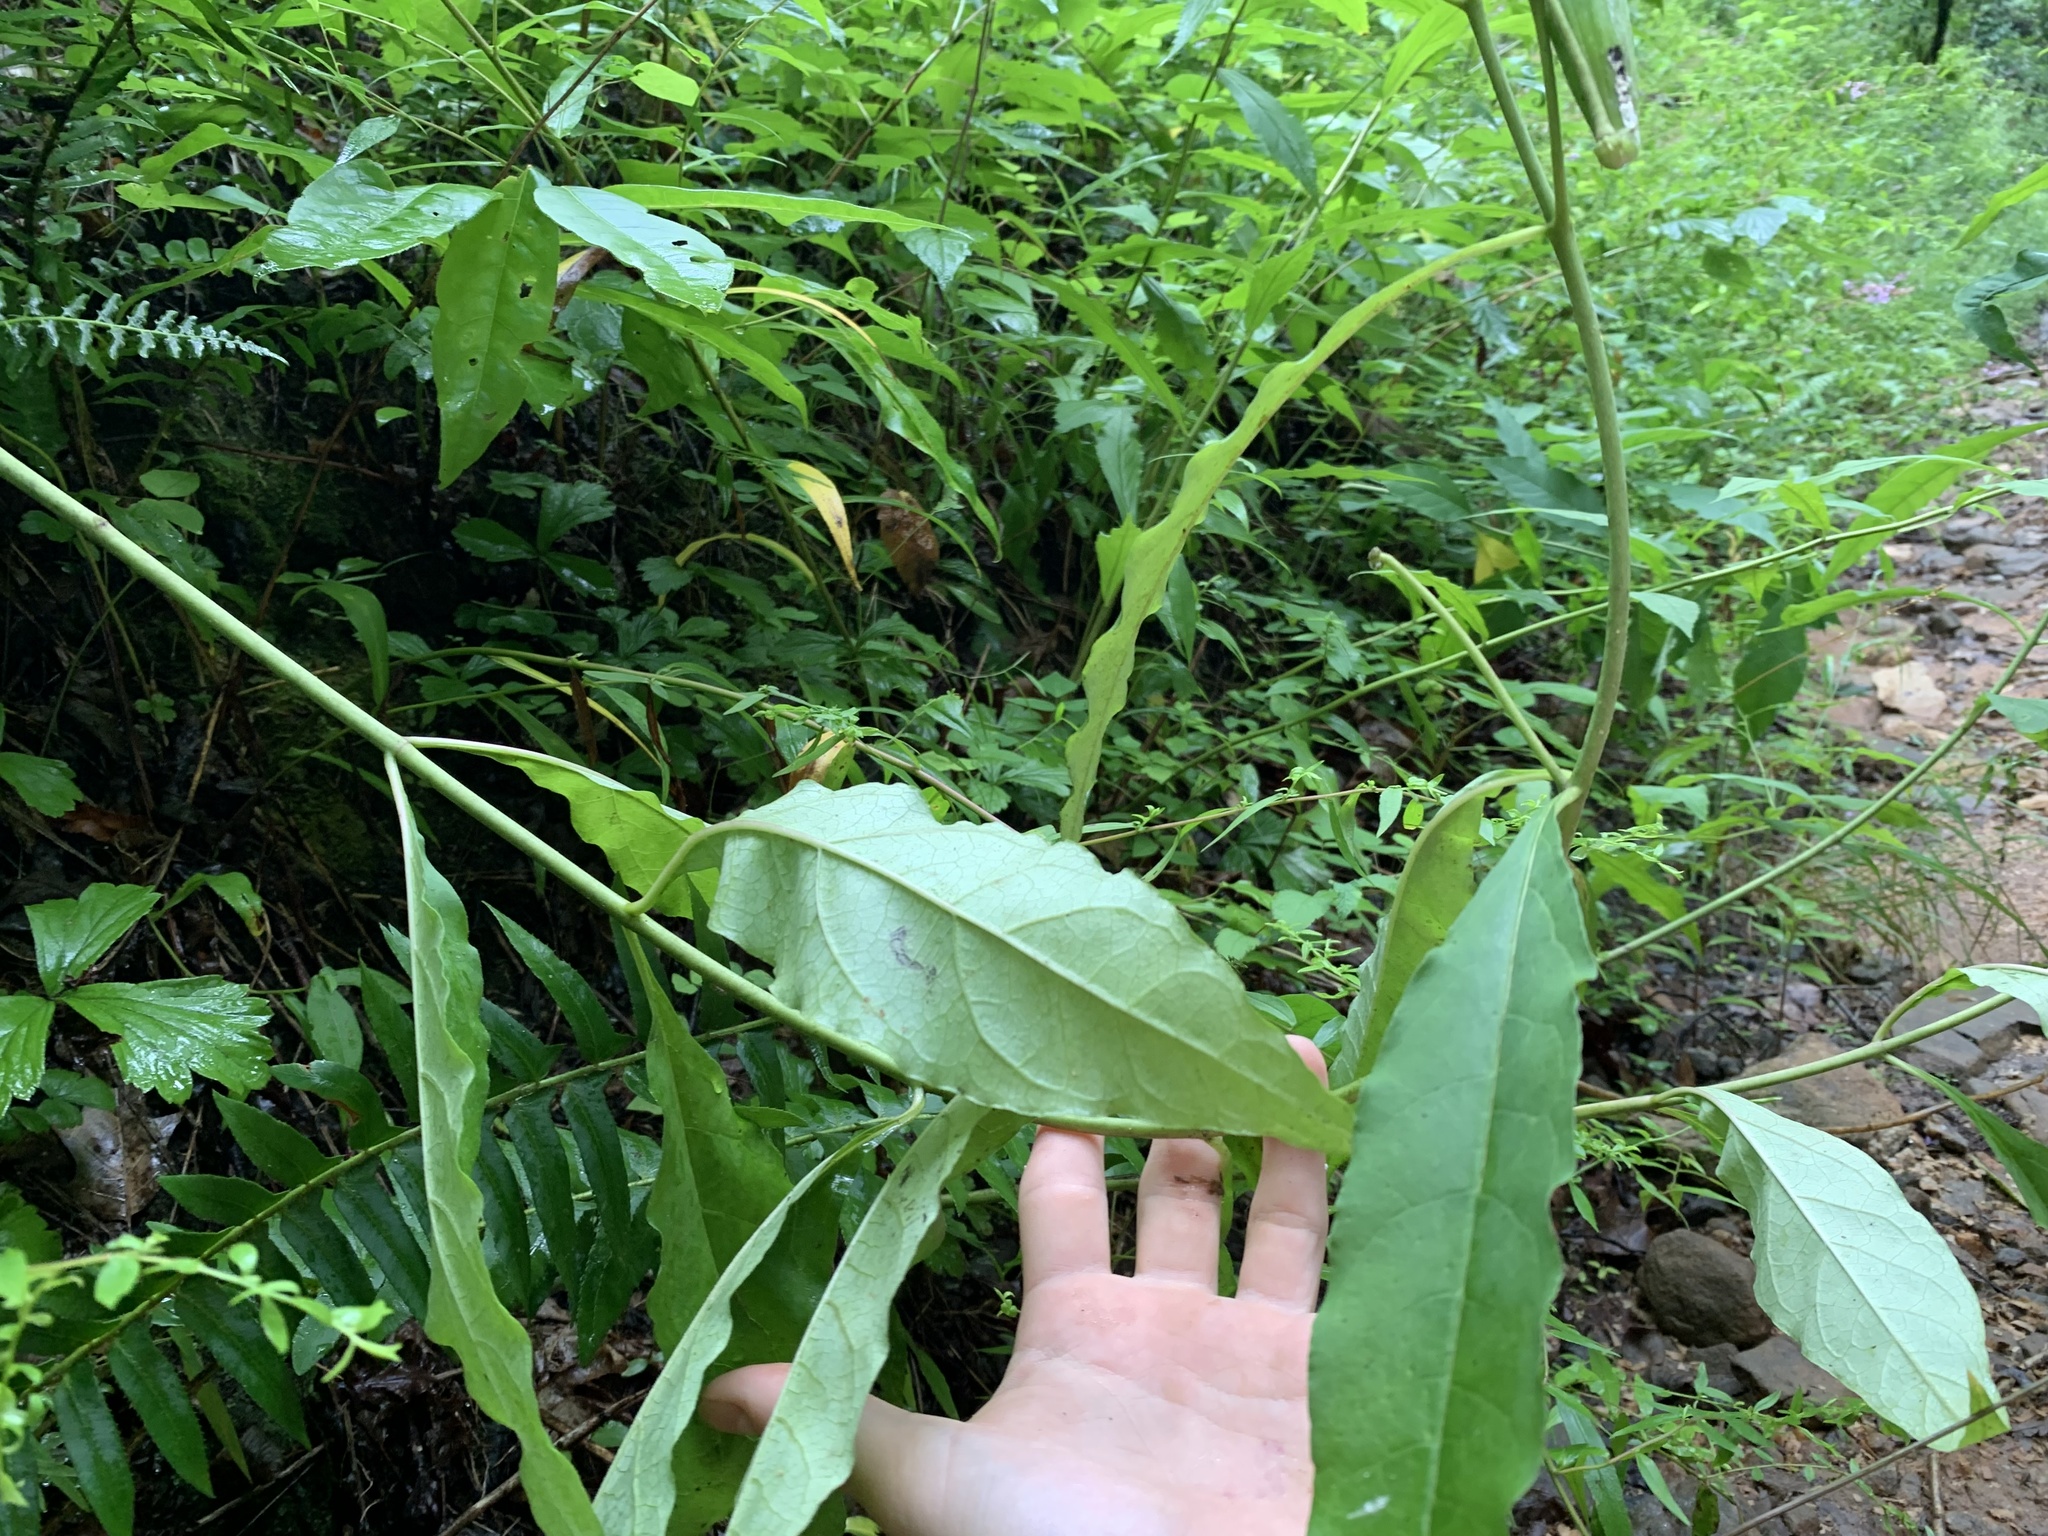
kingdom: Plantae
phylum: Tracheophyta
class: Magnoliopsida
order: Gentianales
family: Apocynaceae
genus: Asclepias
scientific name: Asclepias exaltata
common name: Poke milkweed
